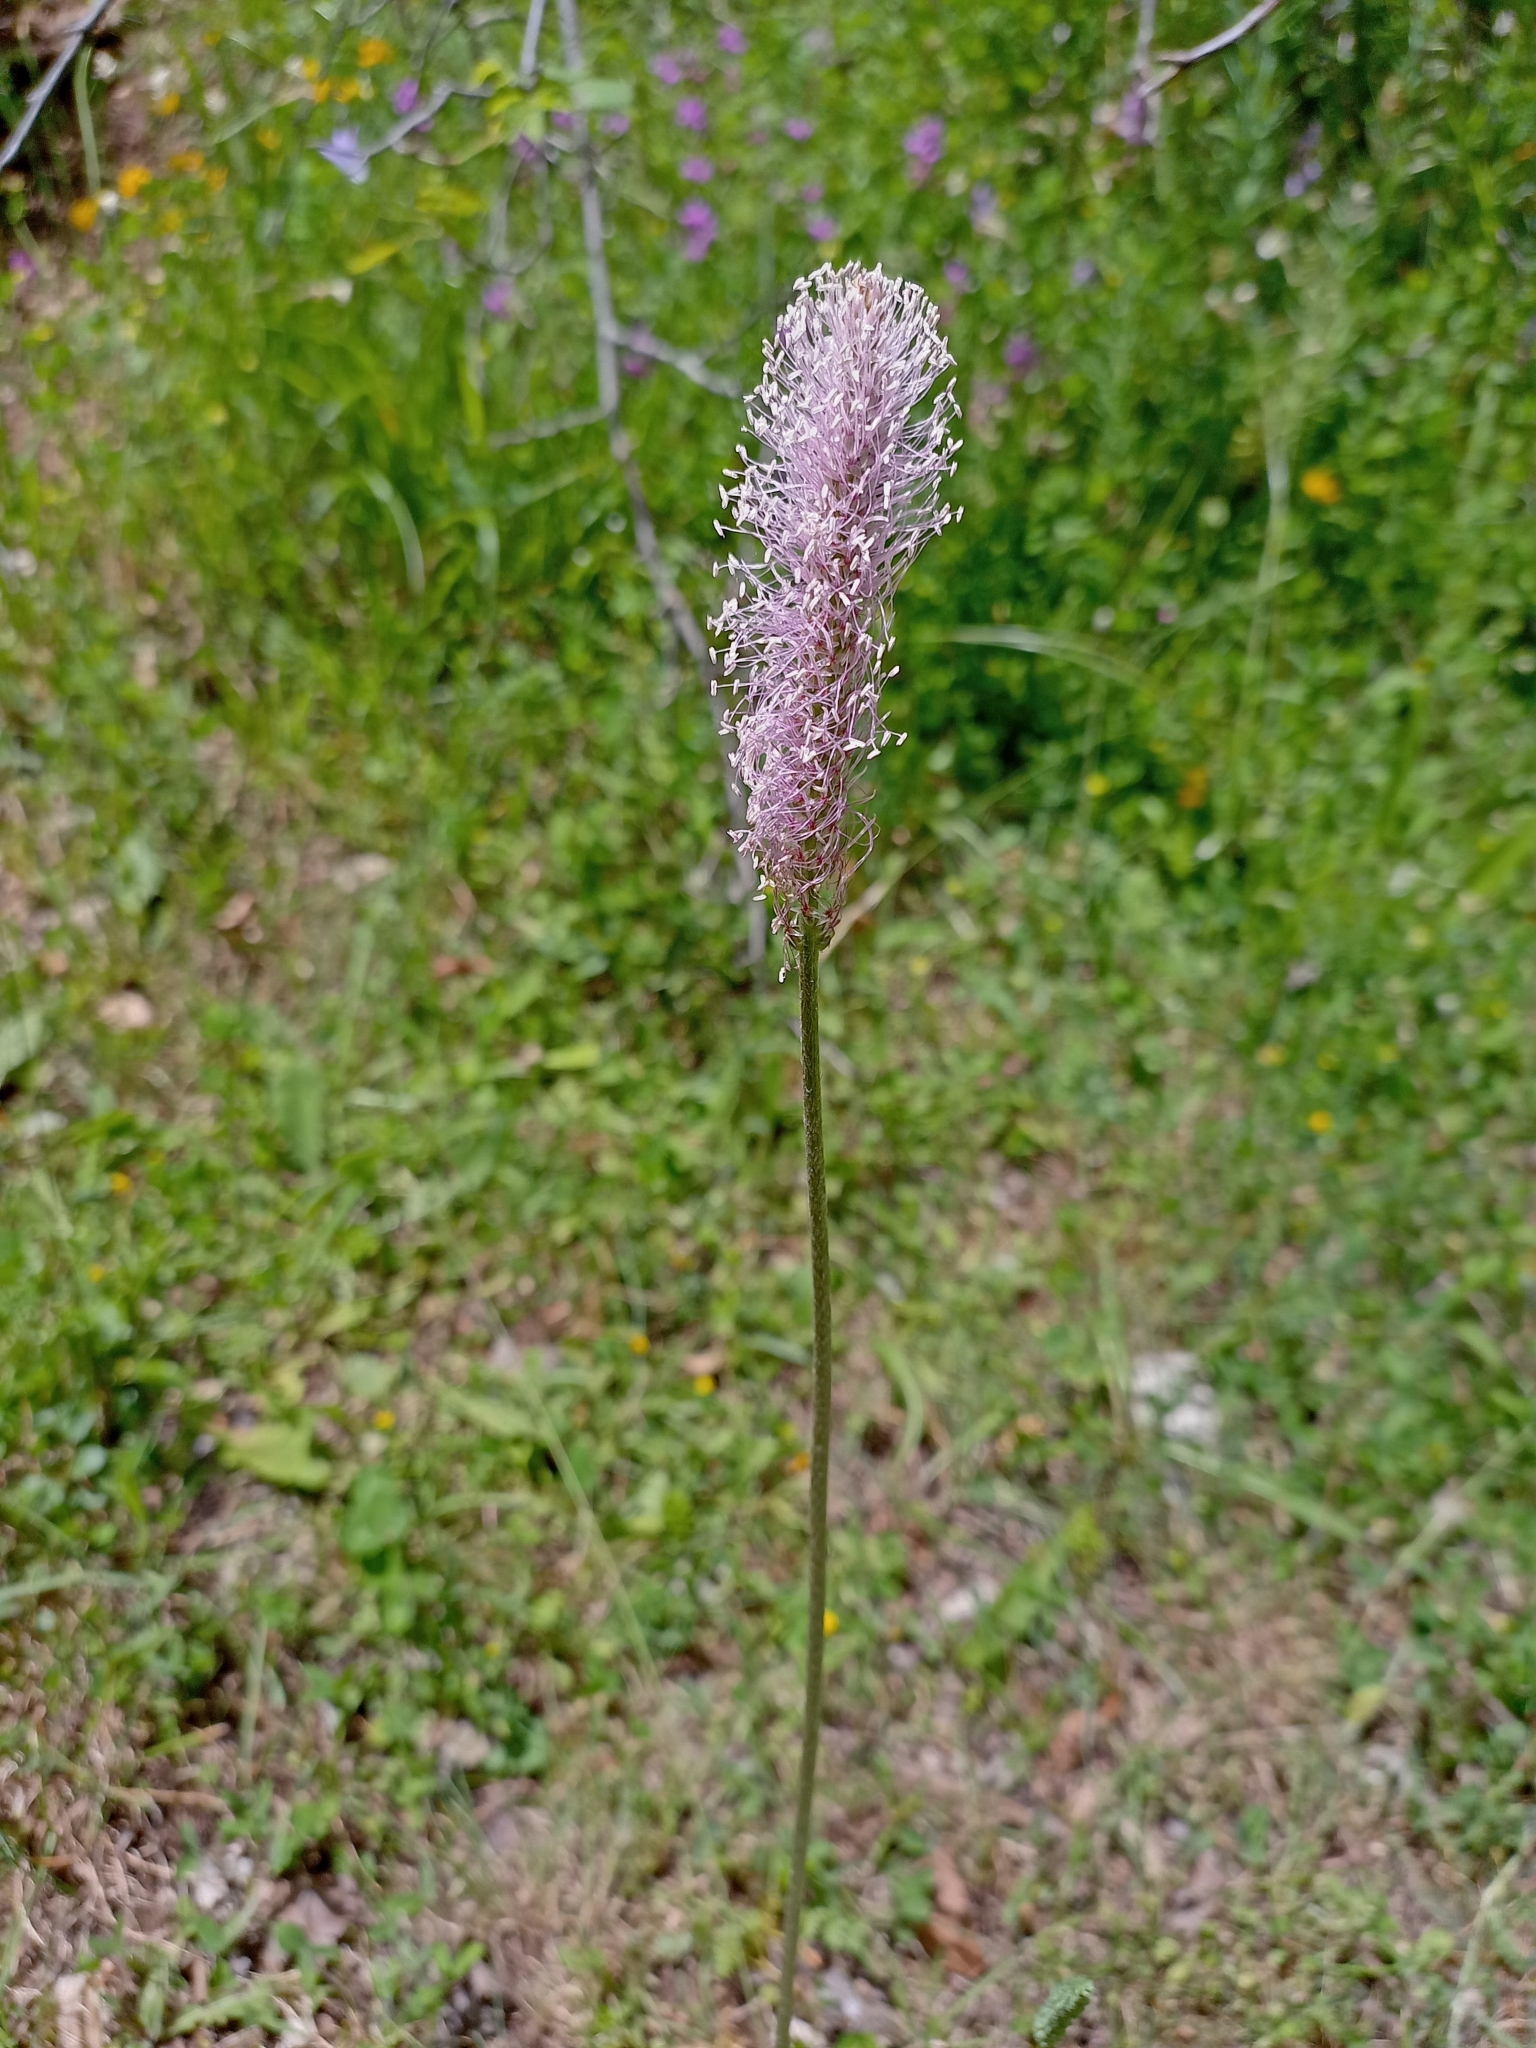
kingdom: Plantae
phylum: Tracheophyta
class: Magnoliopsida
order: Lamiales
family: Plantaginaceae
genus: Plantago
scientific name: Plantago media
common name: Hoary plantain
